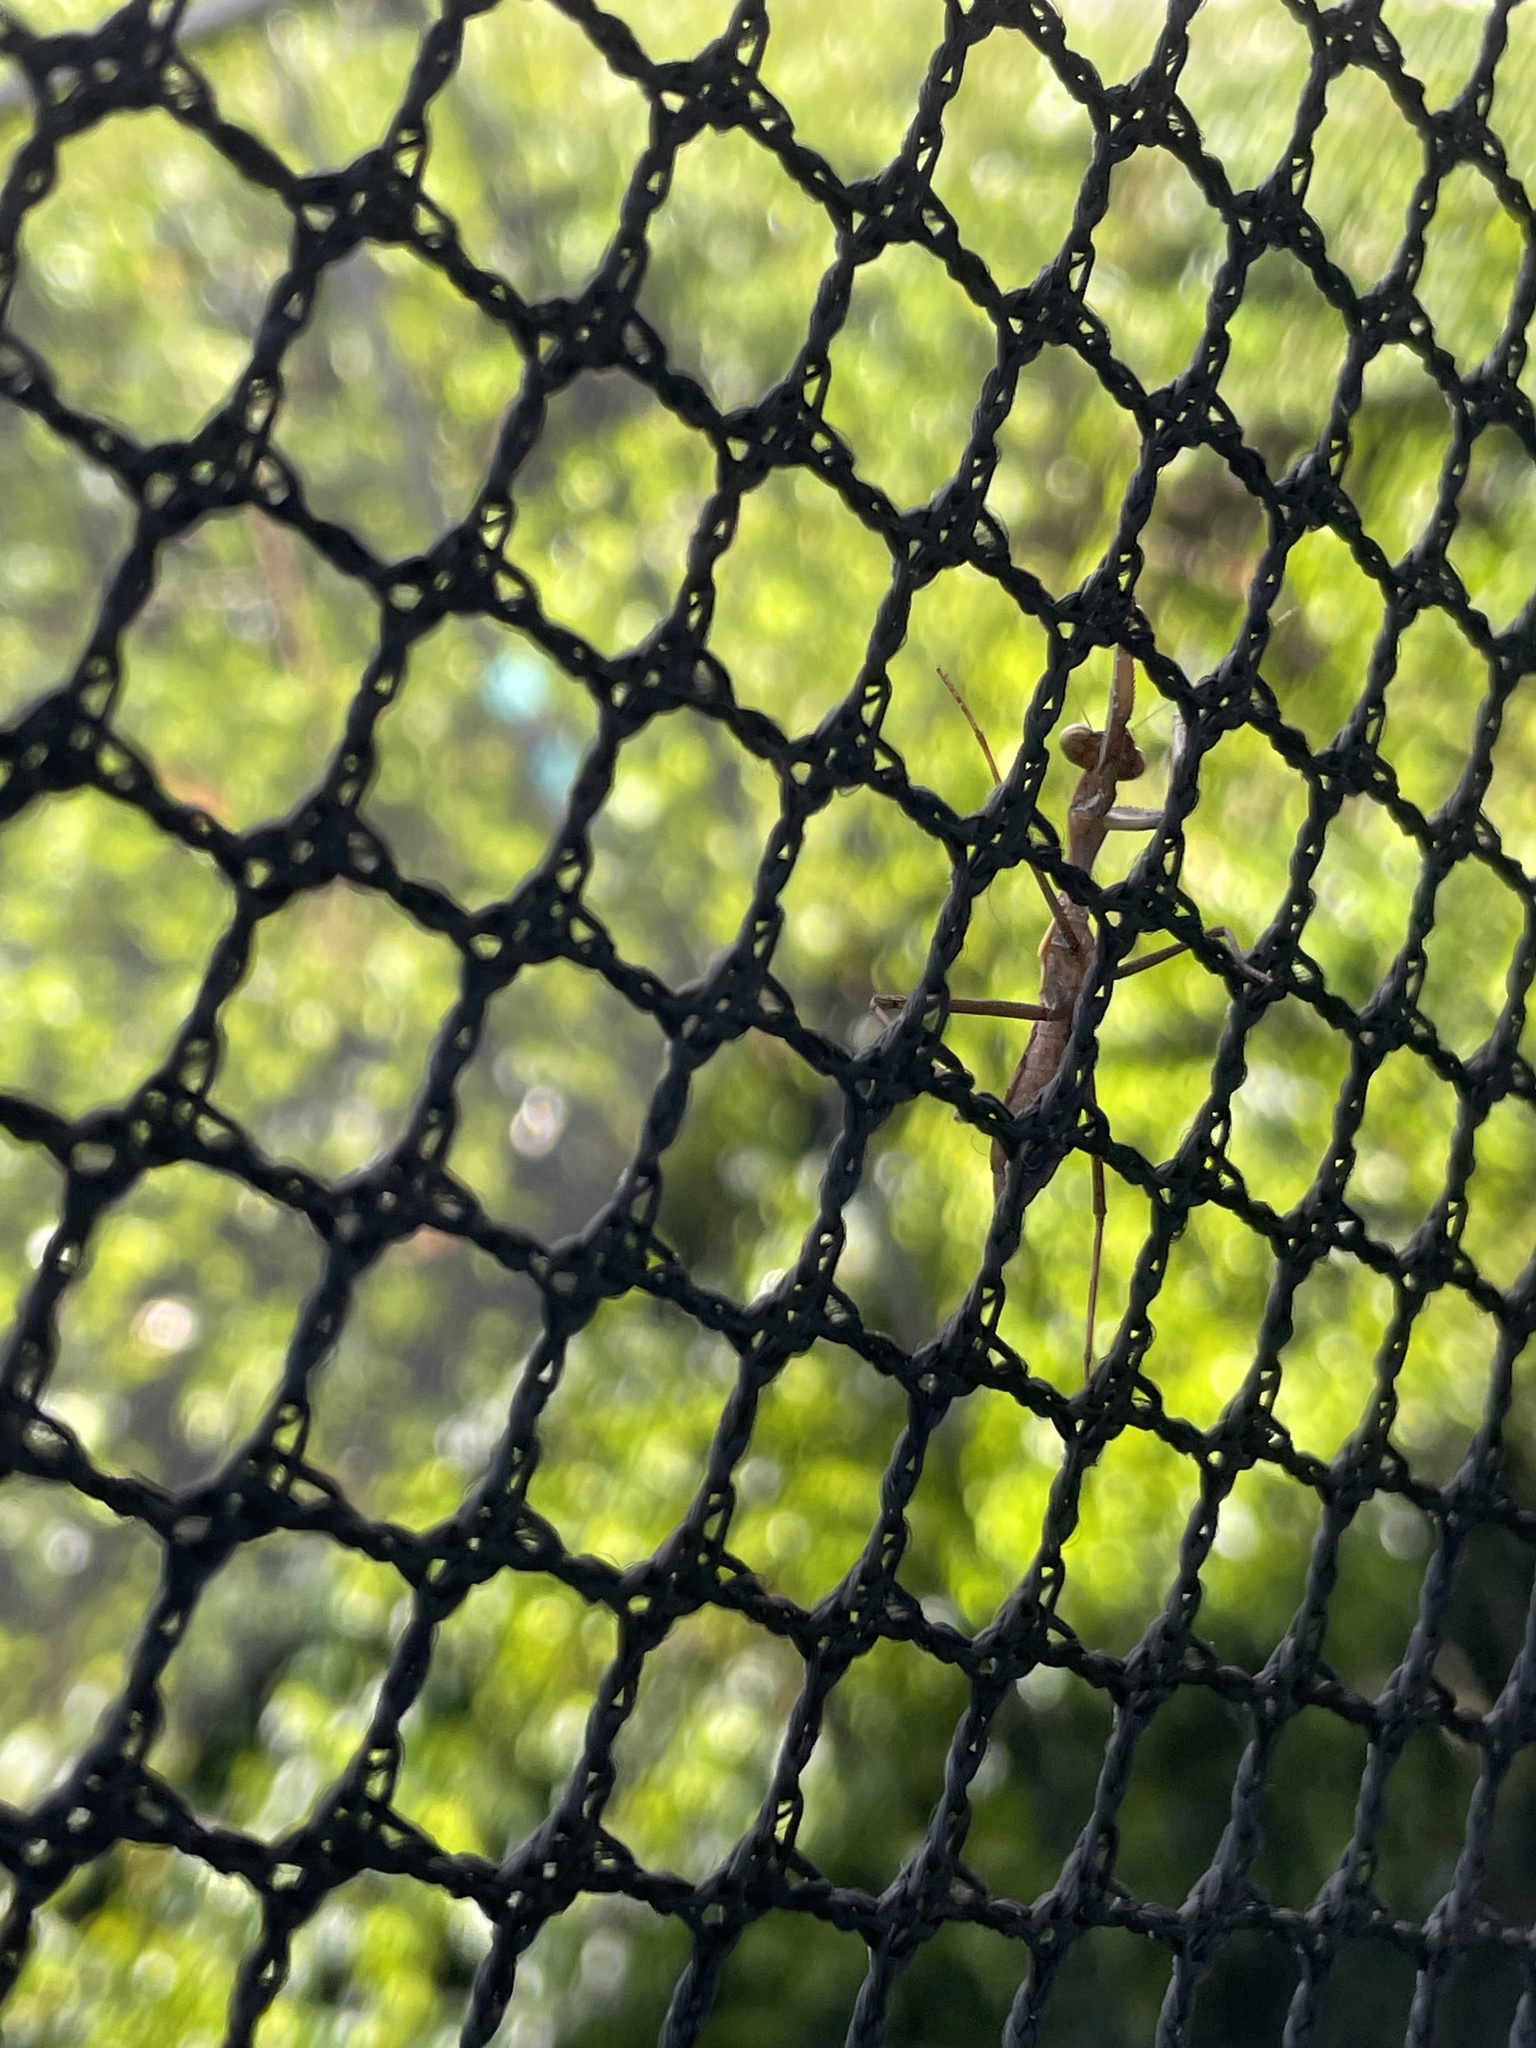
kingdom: Animalia
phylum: Arthropoda
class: Insecta
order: Mantodea
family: Miomantidae
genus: Miomantis
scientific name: Miomantis caffra
